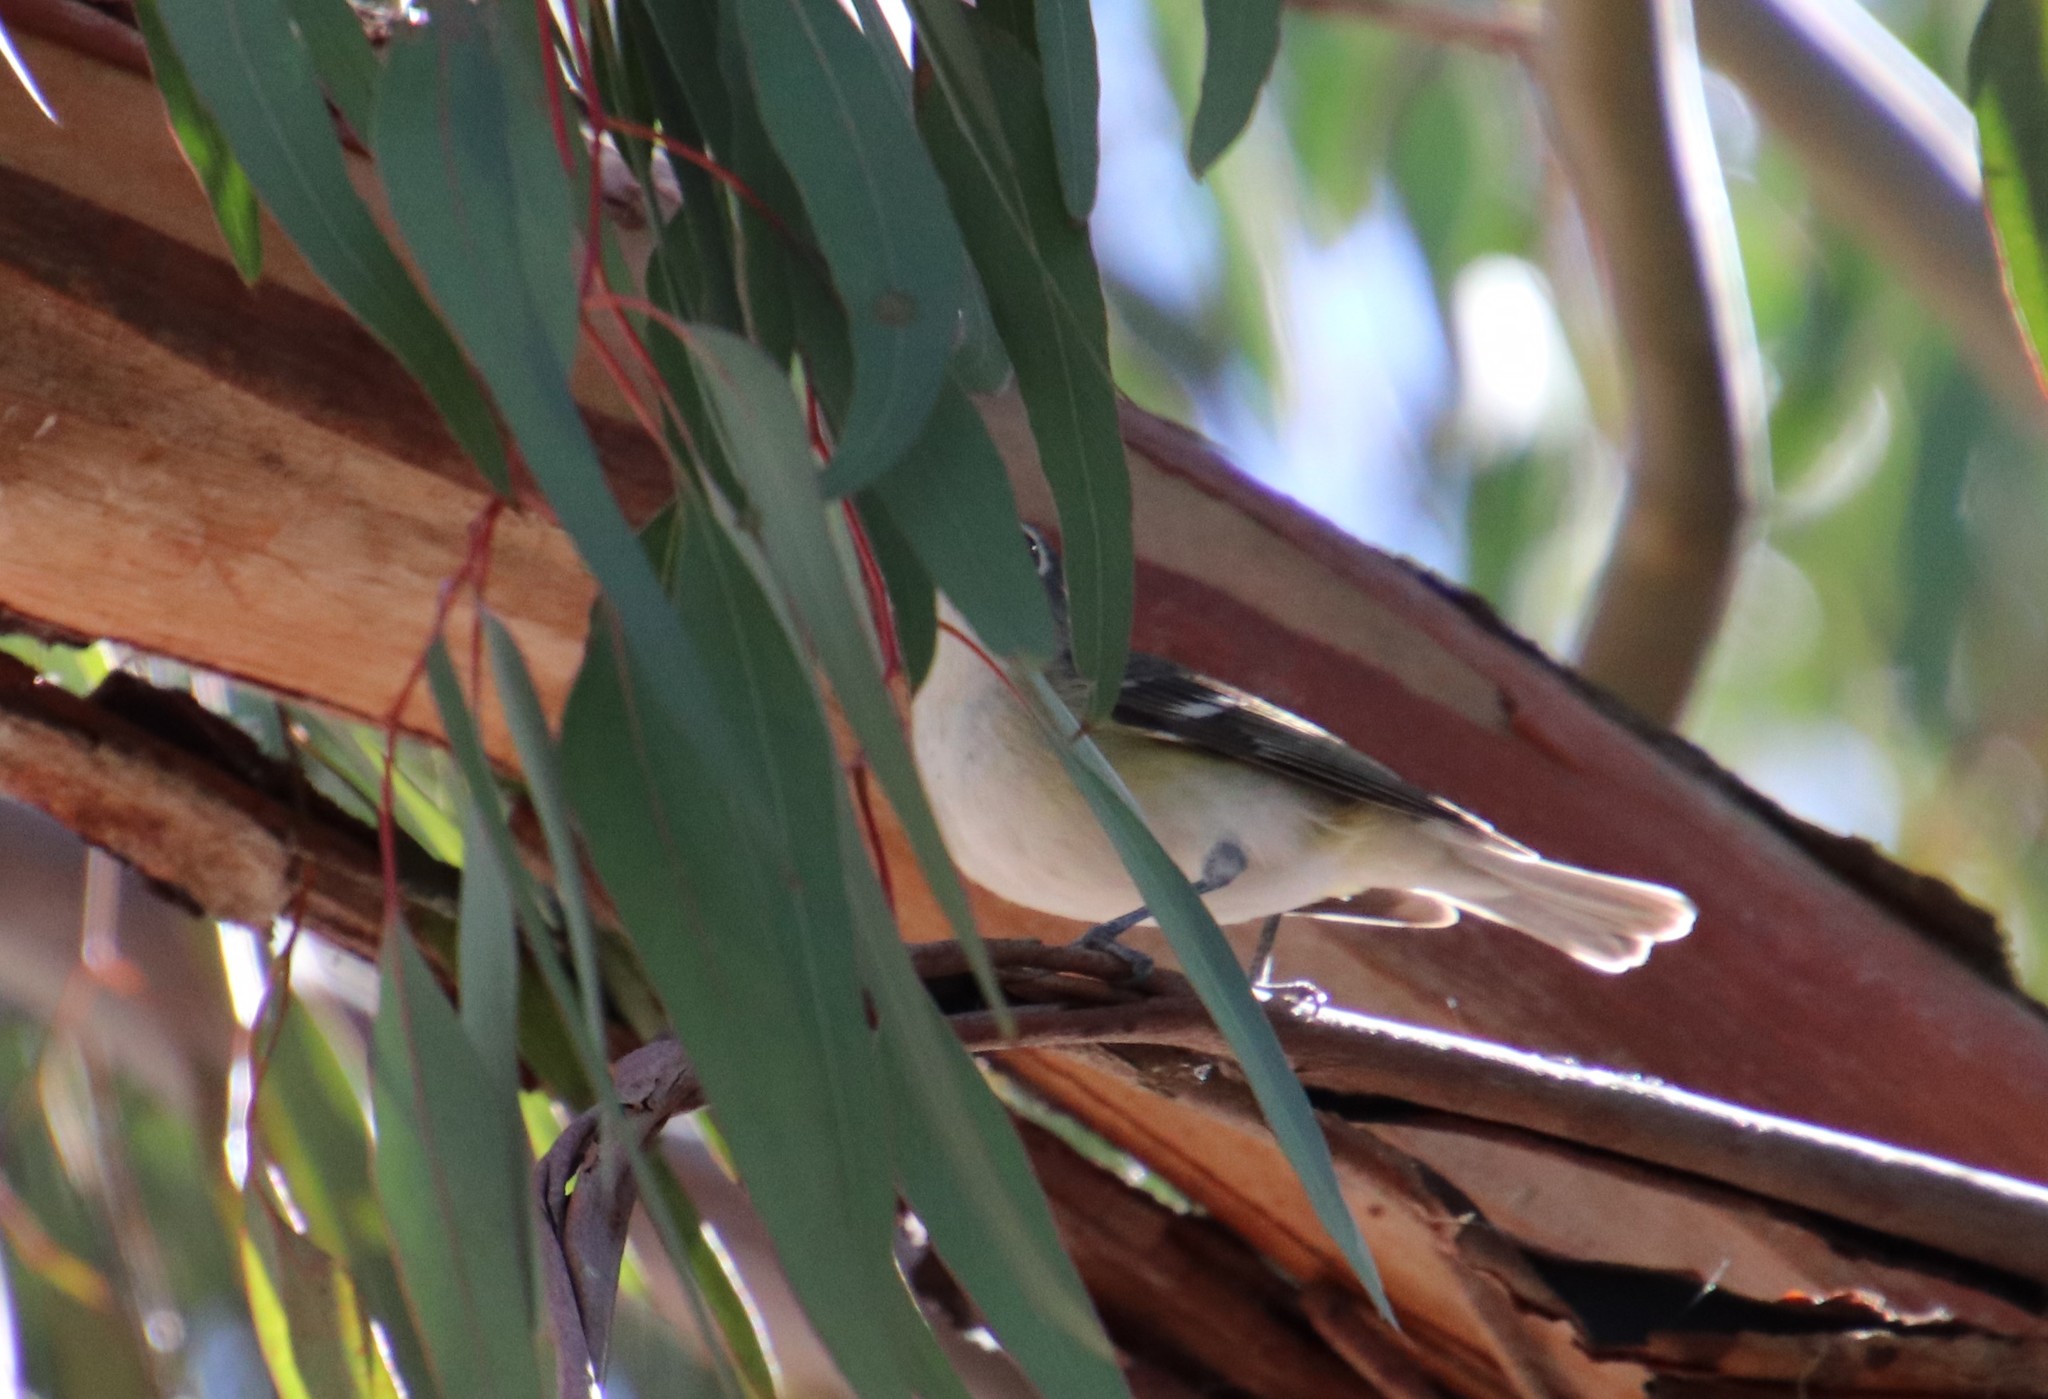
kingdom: Animalia
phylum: Chordata
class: Aves
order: Passeriformes
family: Vireonidae
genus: Vireo
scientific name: Vireo cassinii
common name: Cassin's vireo
